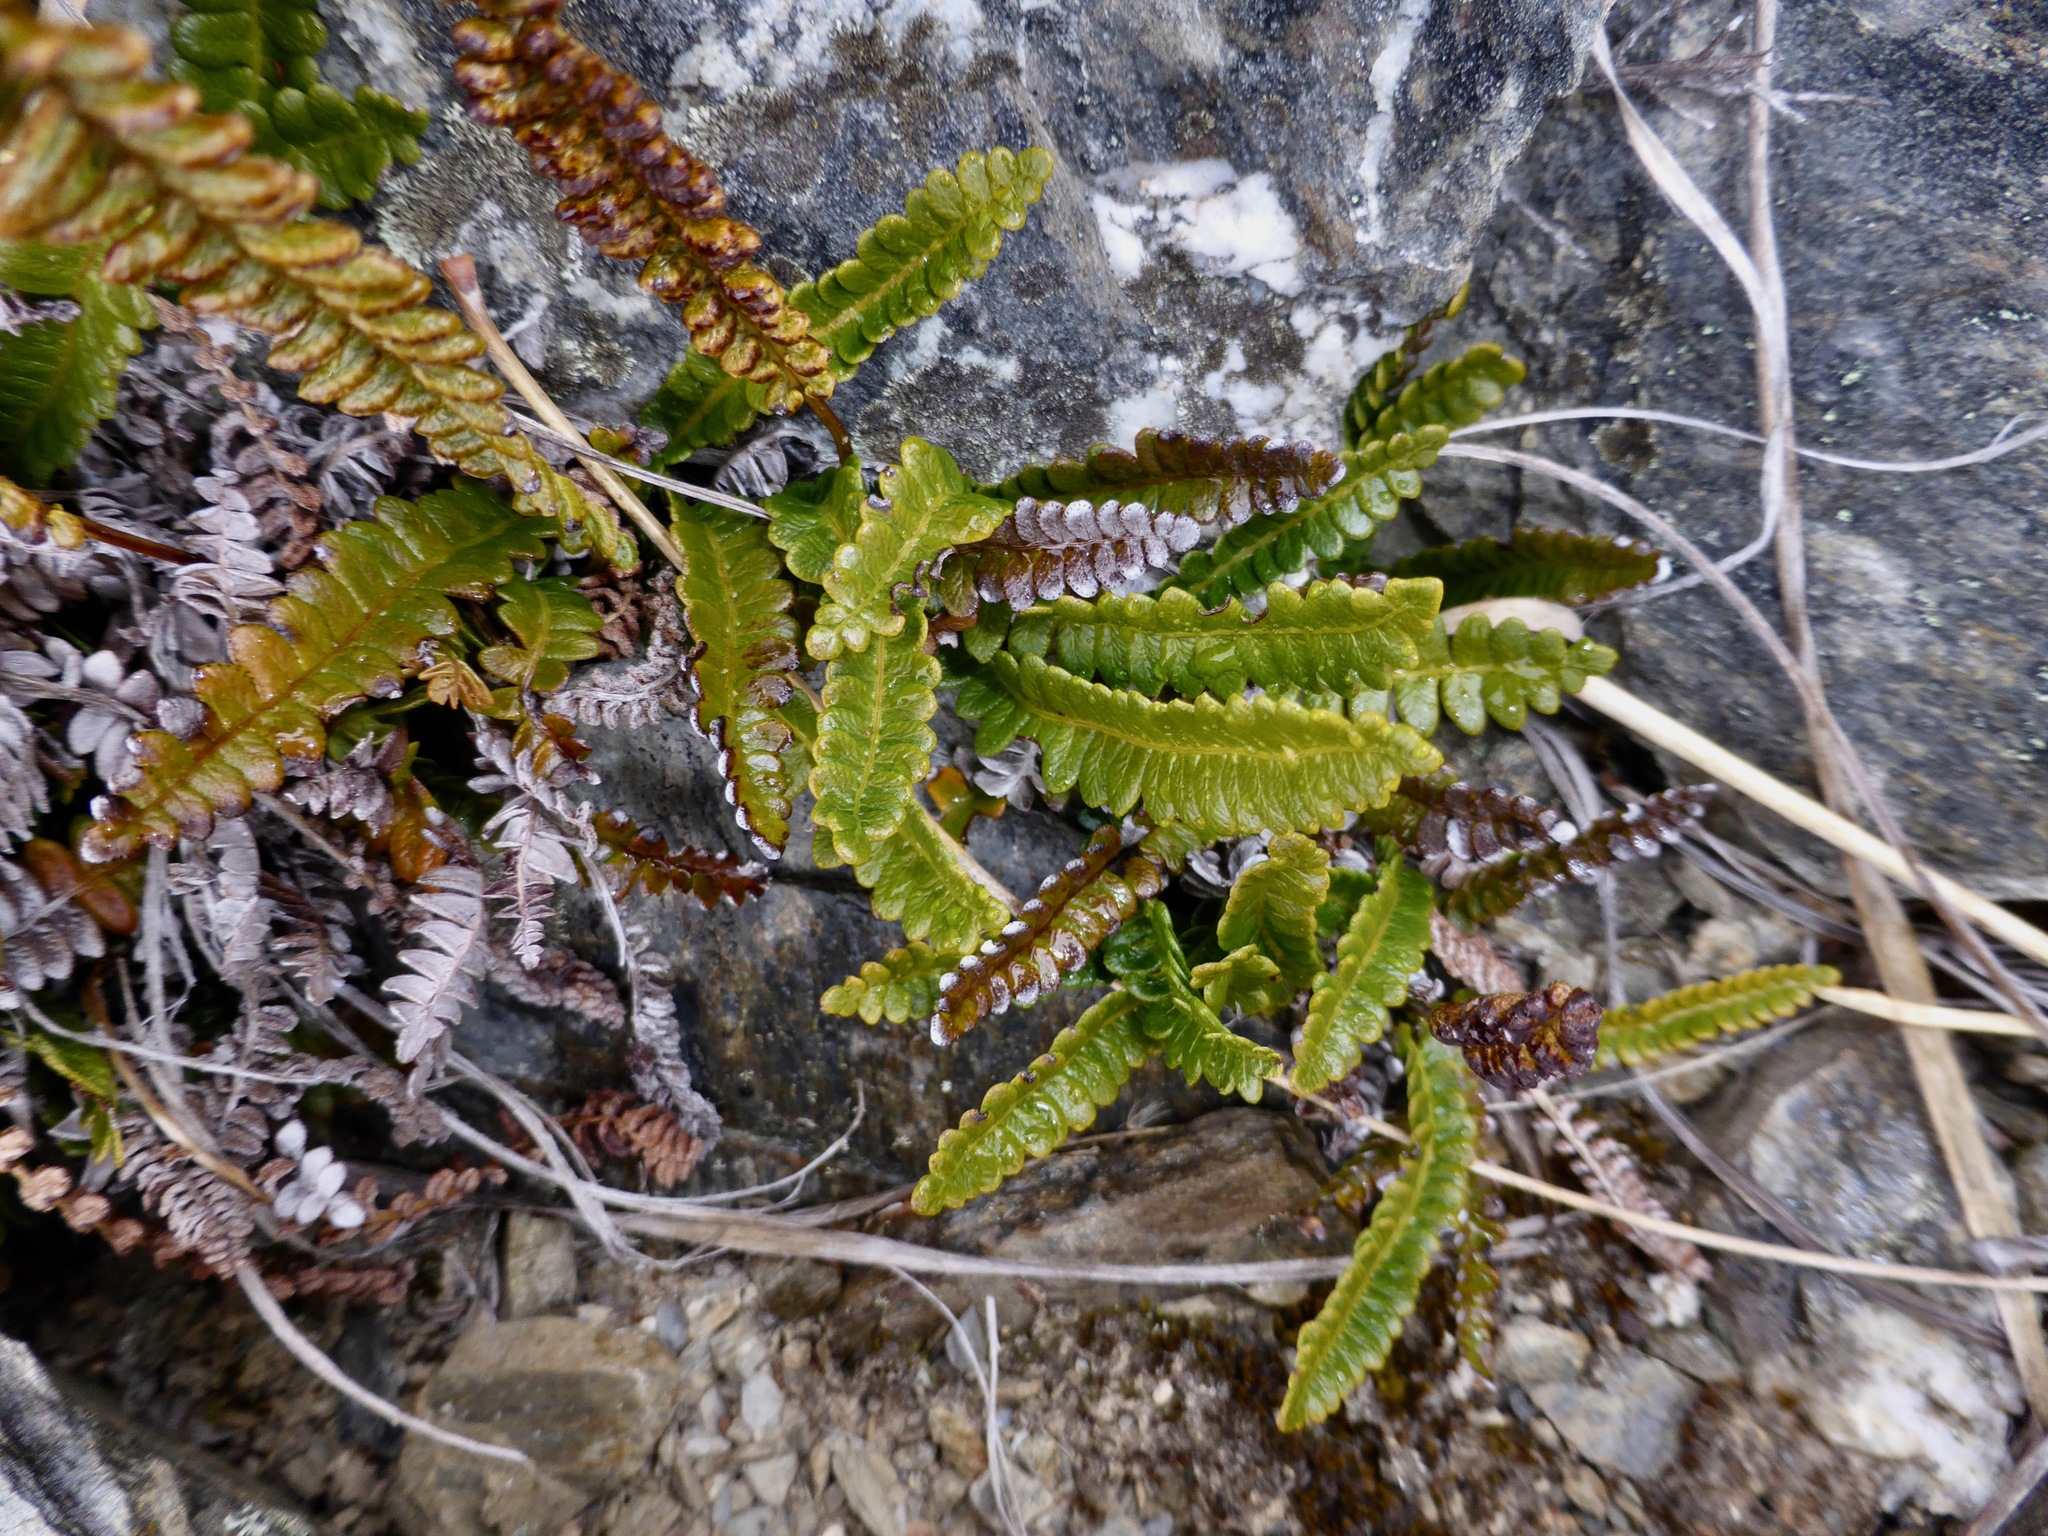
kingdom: Plantae
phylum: Tracheophyta
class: Polypodiopsida
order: Polypodiales
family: Blechnaceae
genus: Austroblechnum
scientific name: Austroblechnum penna-marina
